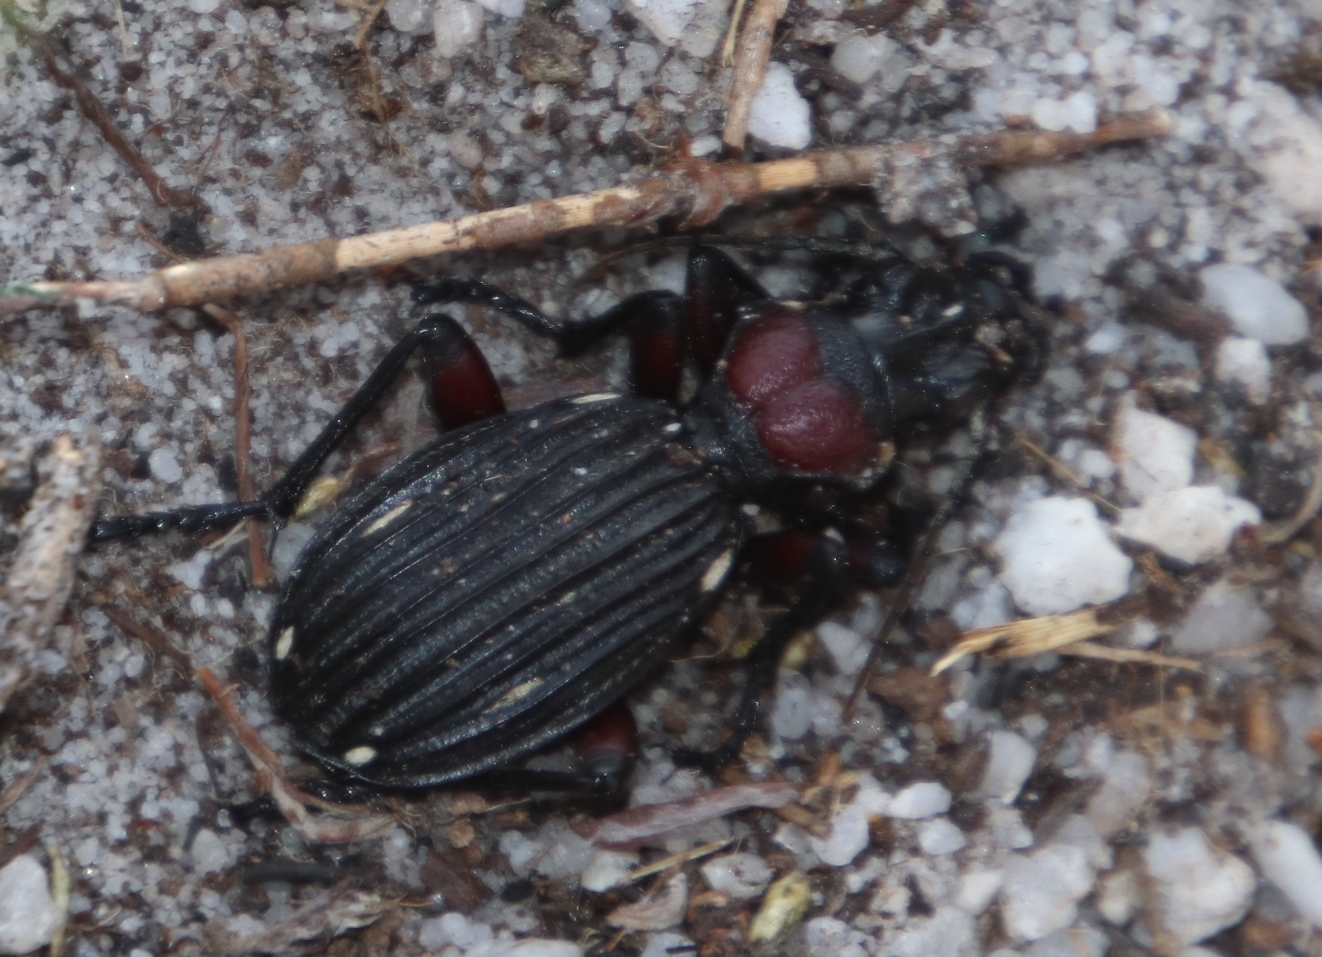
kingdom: Animalia
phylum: Arthropoda
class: Insecta
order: Coleoptera
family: Carabidae
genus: Anthia
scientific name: Anthia decemguttata
